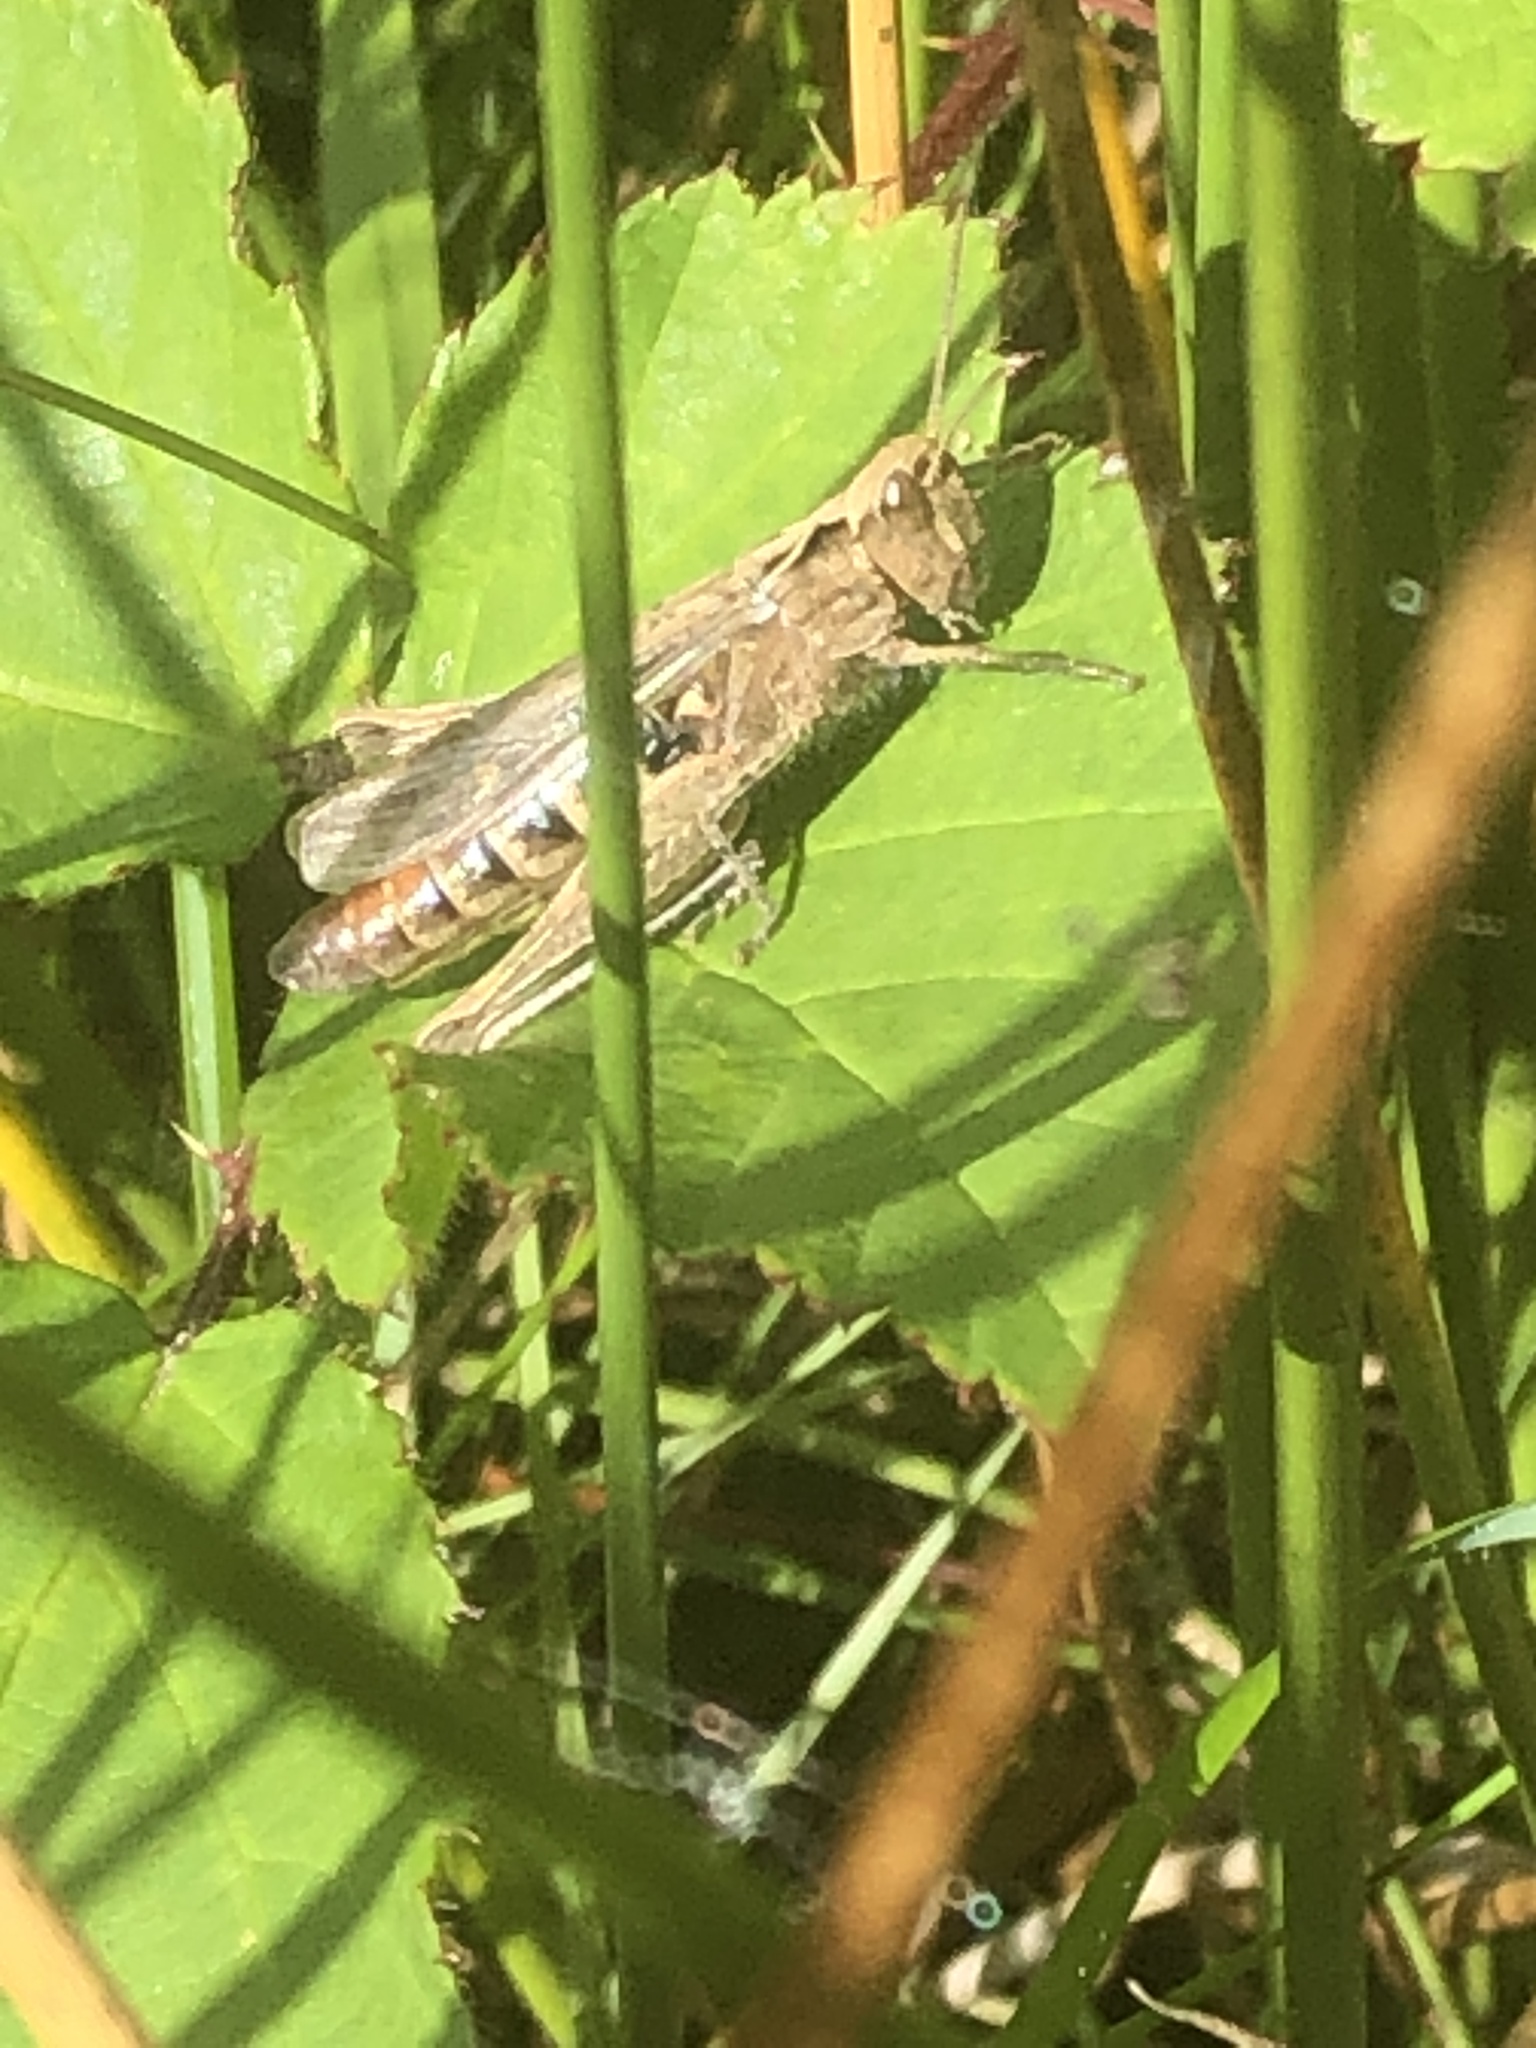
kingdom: Animalia
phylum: Arthropoda
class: Insecta
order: Orthoptera
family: Acrididae
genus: Chorthippus
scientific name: Chorthippus brunneus
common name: Field grasshopper
